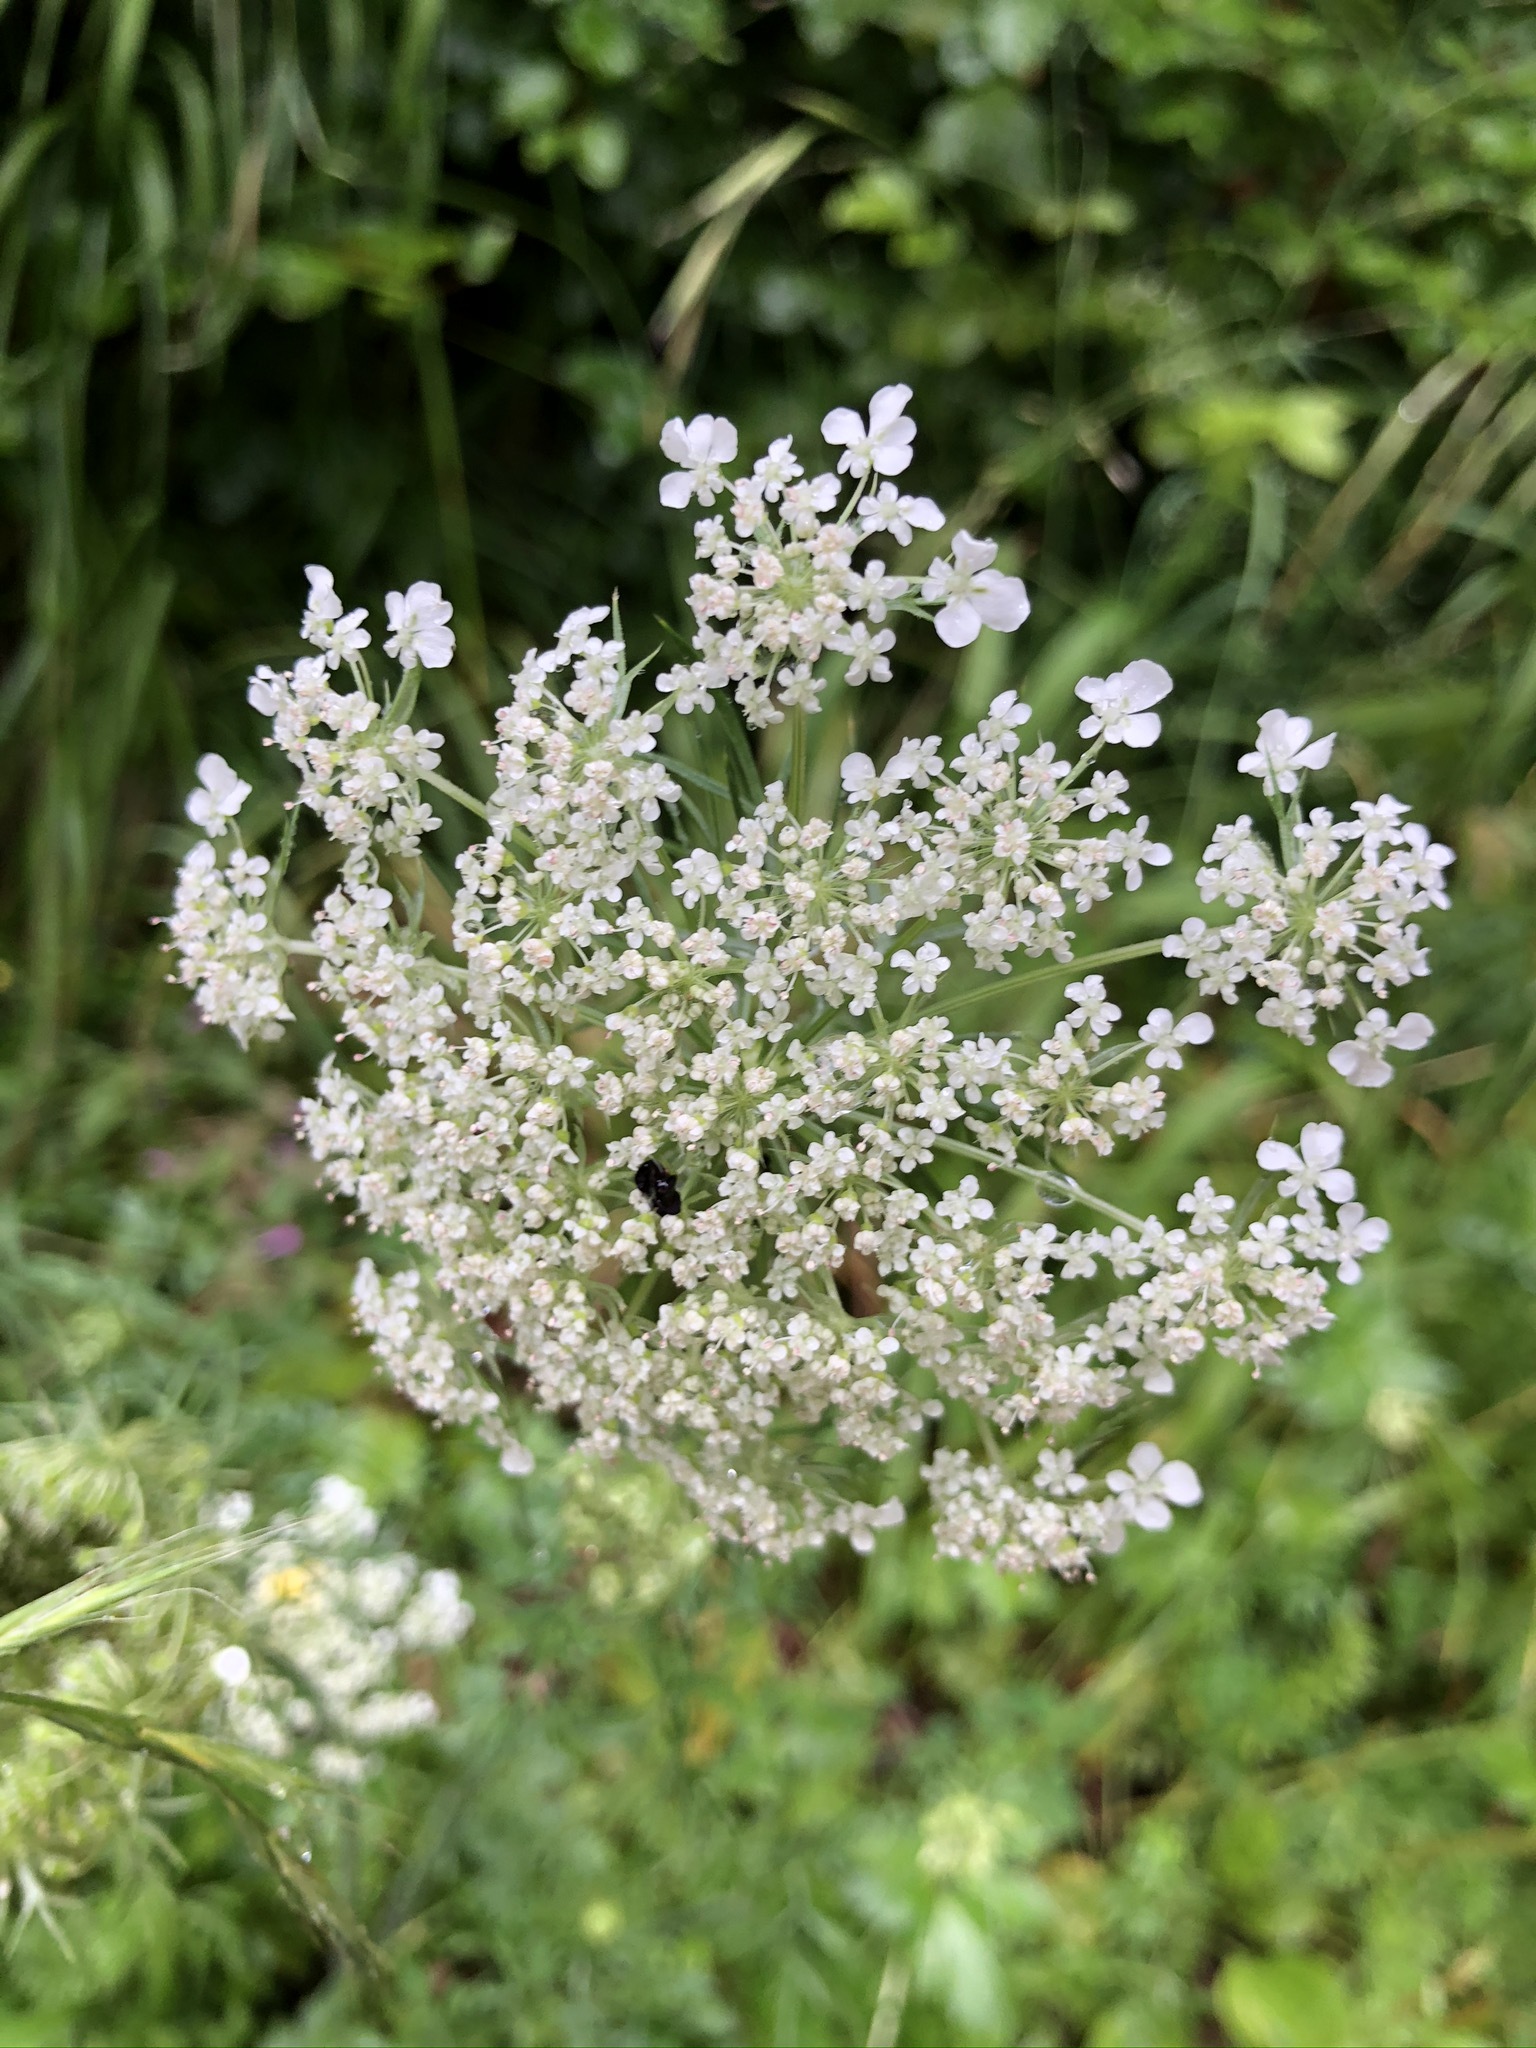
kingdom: Plantae
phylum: Tracheophyta
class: Magnoliopsida
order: Apiales
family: Apiaceae
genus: Daucus
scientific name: Daucus carota
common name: Wild carrot
